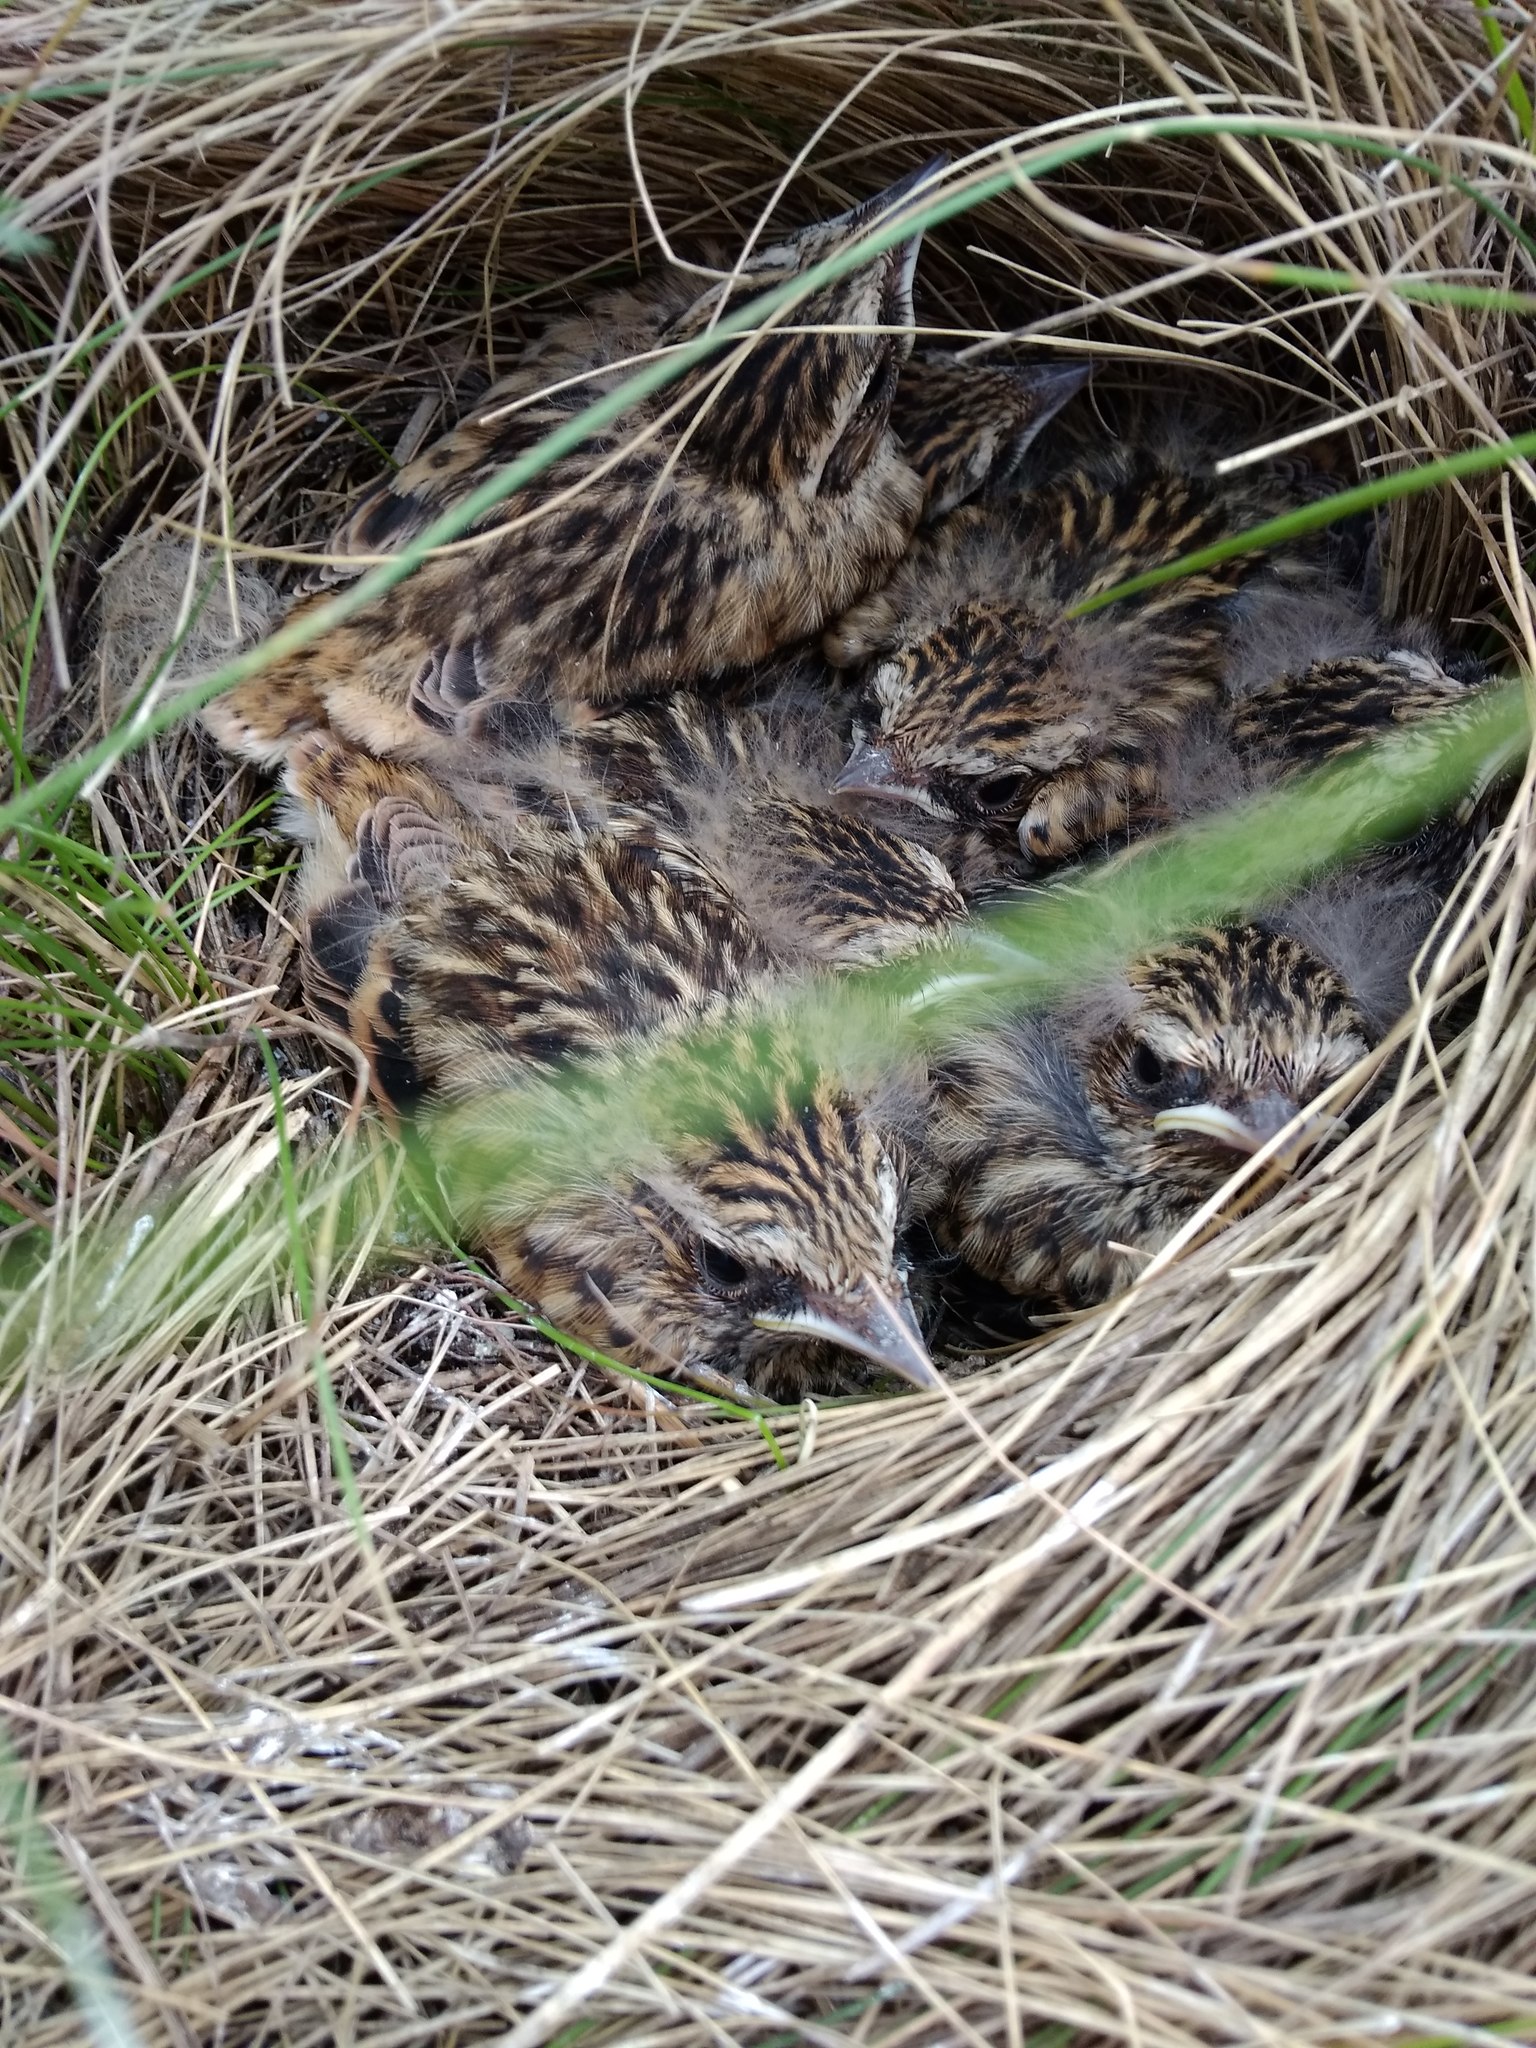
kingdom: Animalia
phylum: Chordata
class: Aves
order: Passeriformes
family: Muscicapidae
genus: Saxicola
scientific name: Saxicola rubetra
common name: Whinchat
